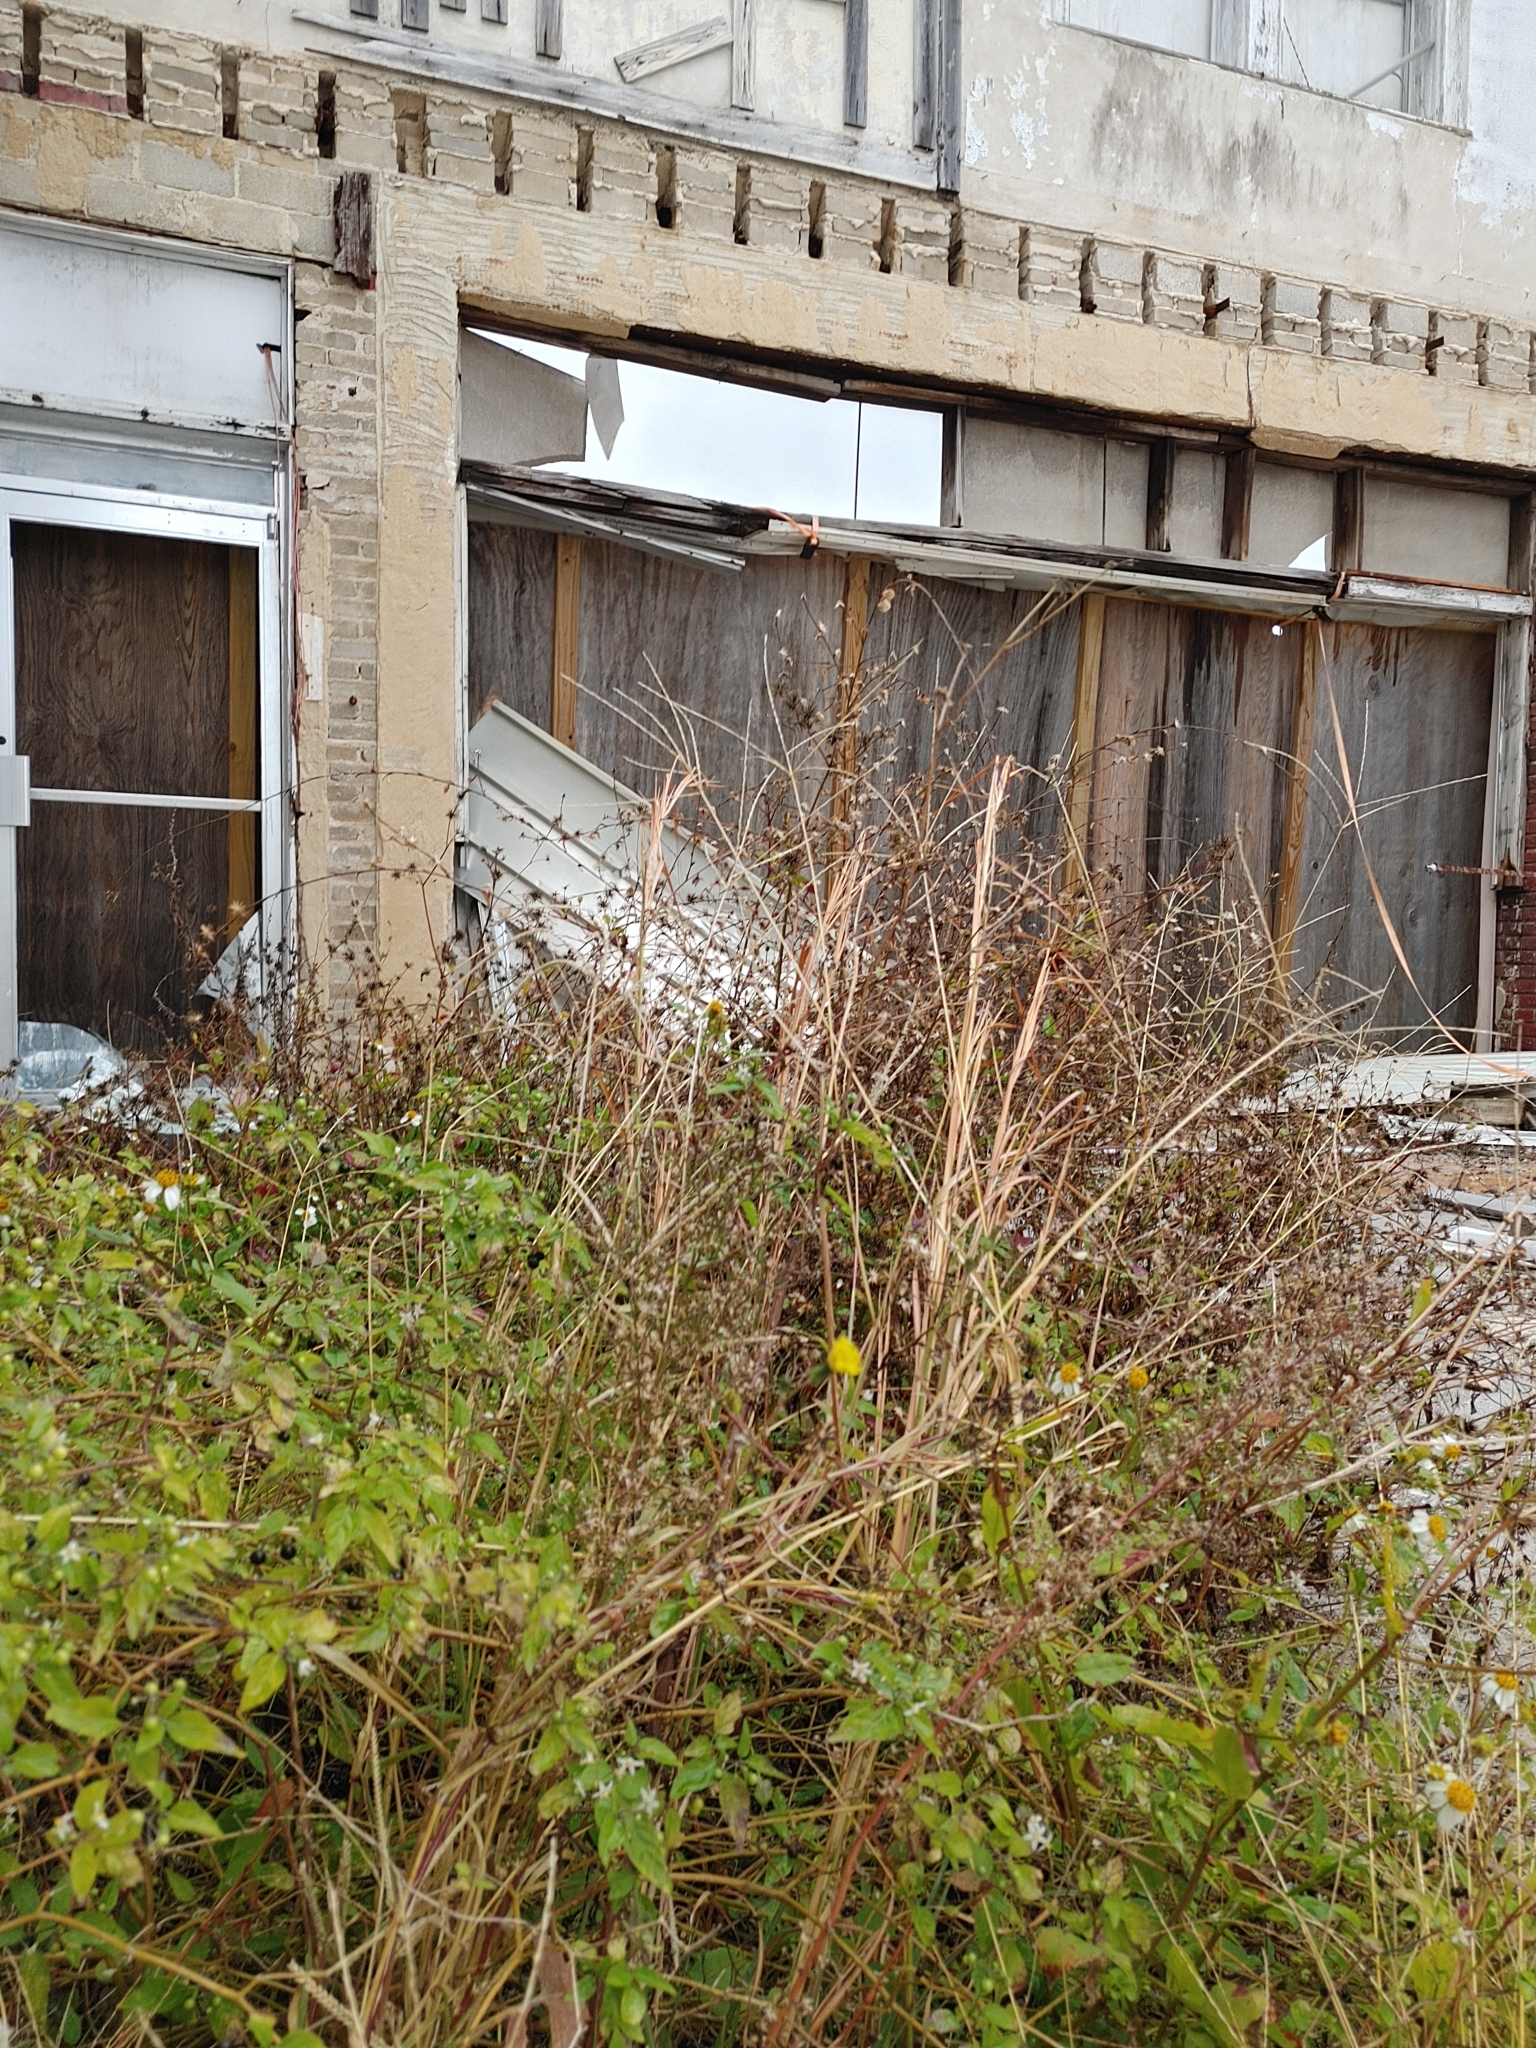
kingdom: Plantae
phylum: Tracheophyta
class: Magnoliopsida
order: Solanales
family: Solanaceae
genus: Solanum
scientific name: Solanum americanum
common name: American black nightshade
